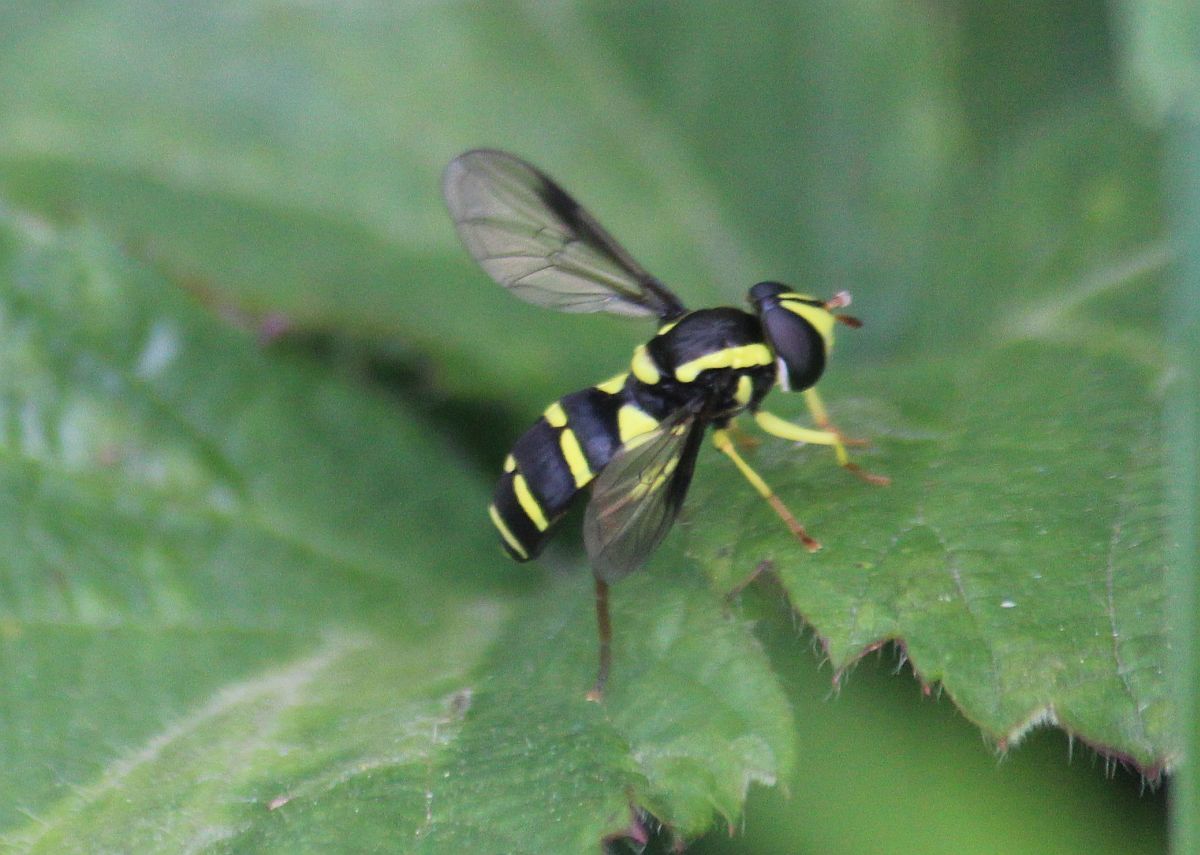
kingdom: Animalia
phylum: Arthropoda
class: Insecta
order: Diptera
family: Syrphidae
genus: Philhelius
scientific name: Philhelius pedissequum
